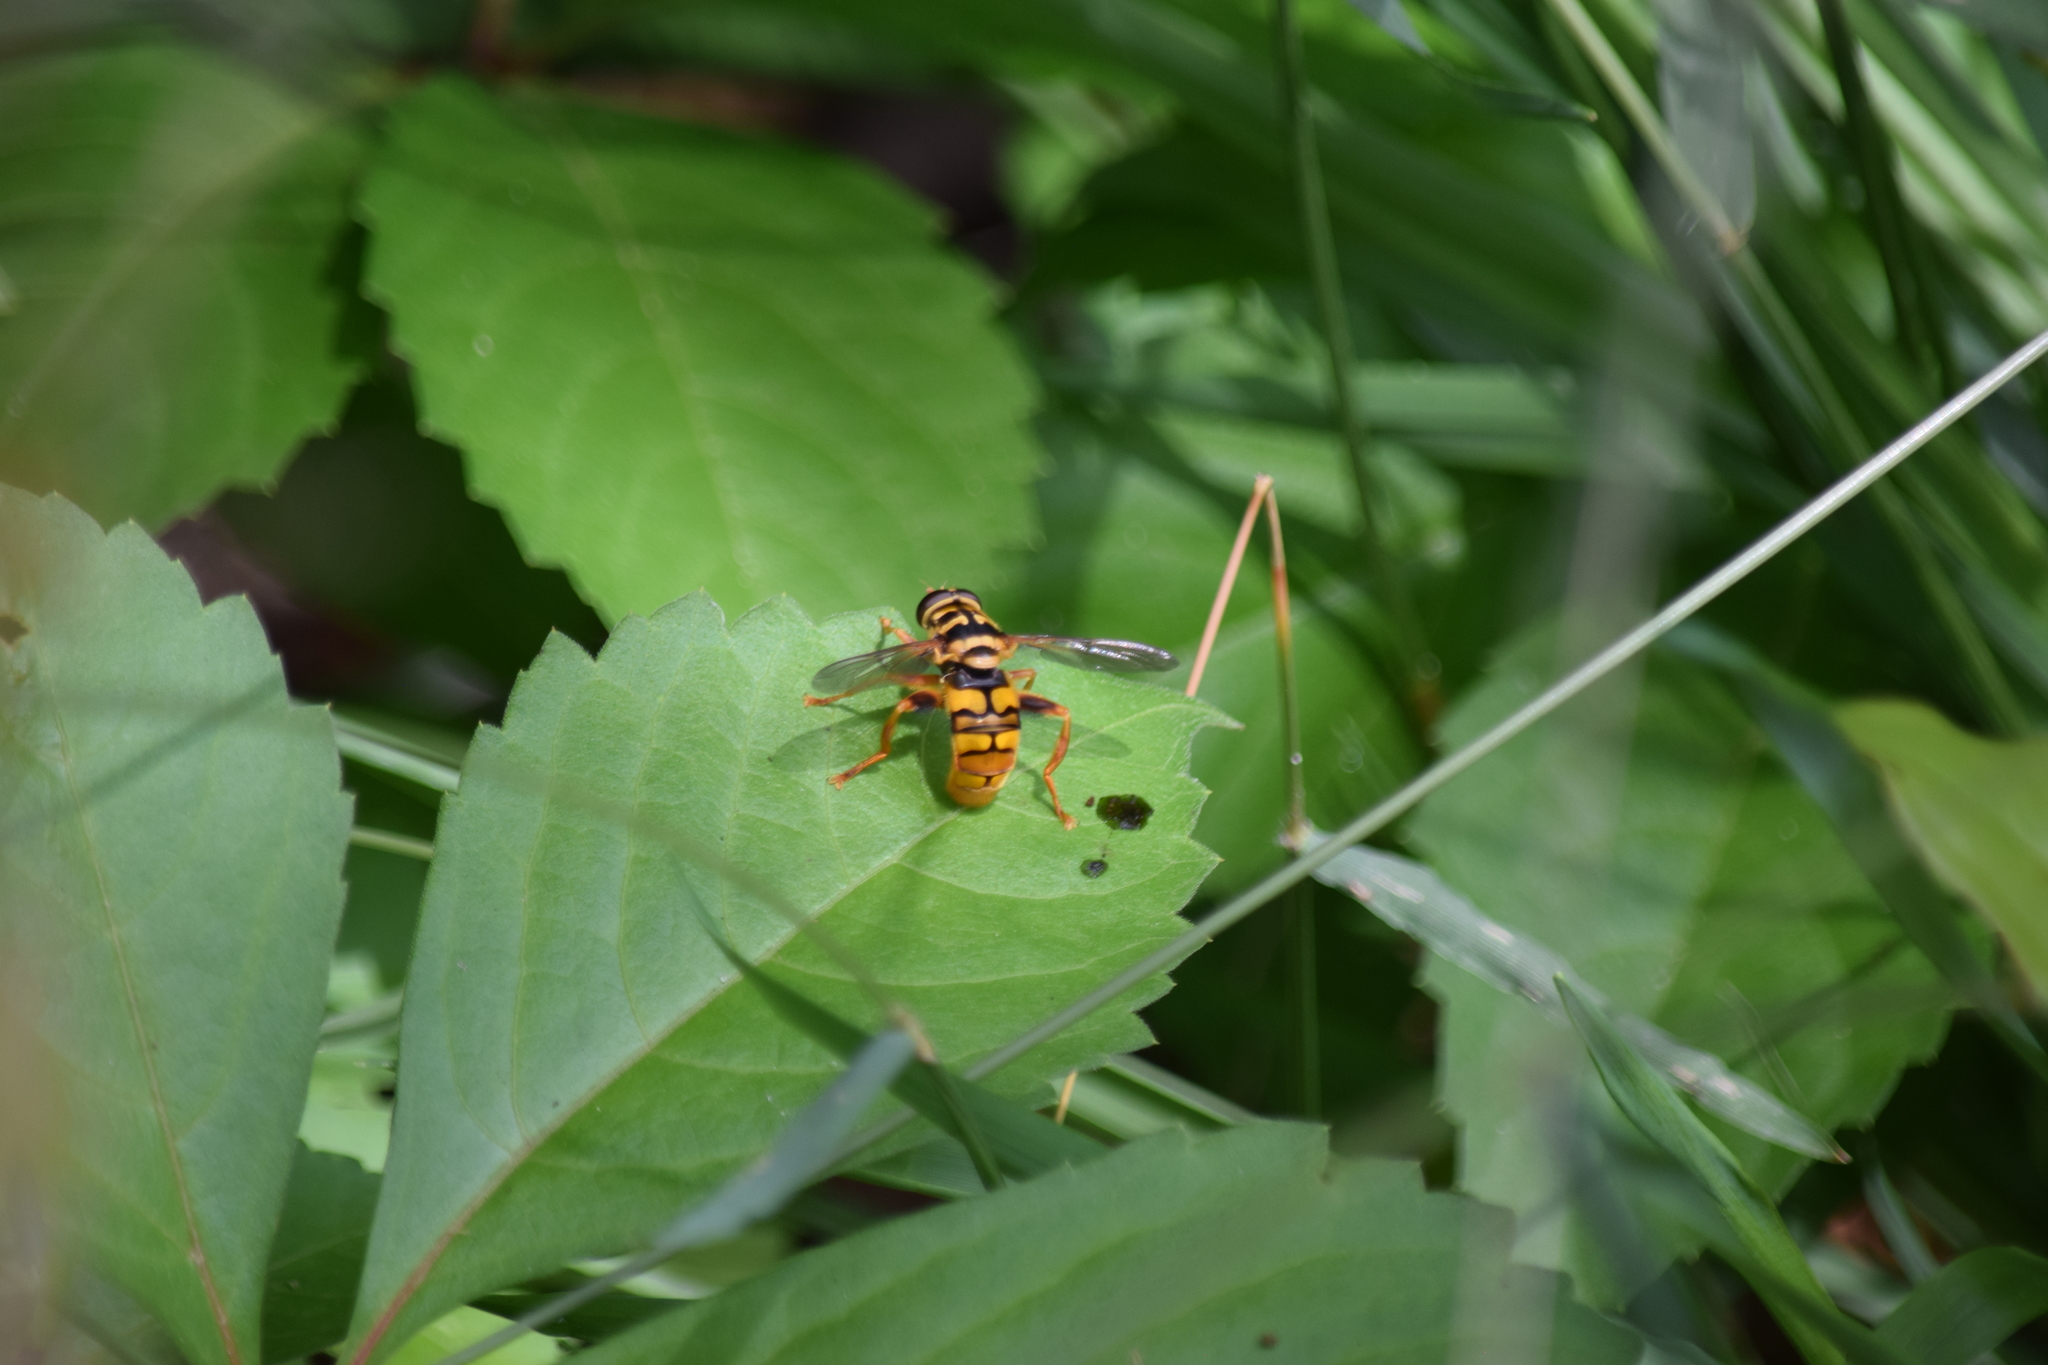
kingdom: Animalia
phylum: Arthropoda
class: Insecta
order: Diptera
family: Syrphidae
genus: Milesia
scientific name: Milesia virginiensis
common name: Virginia giant
